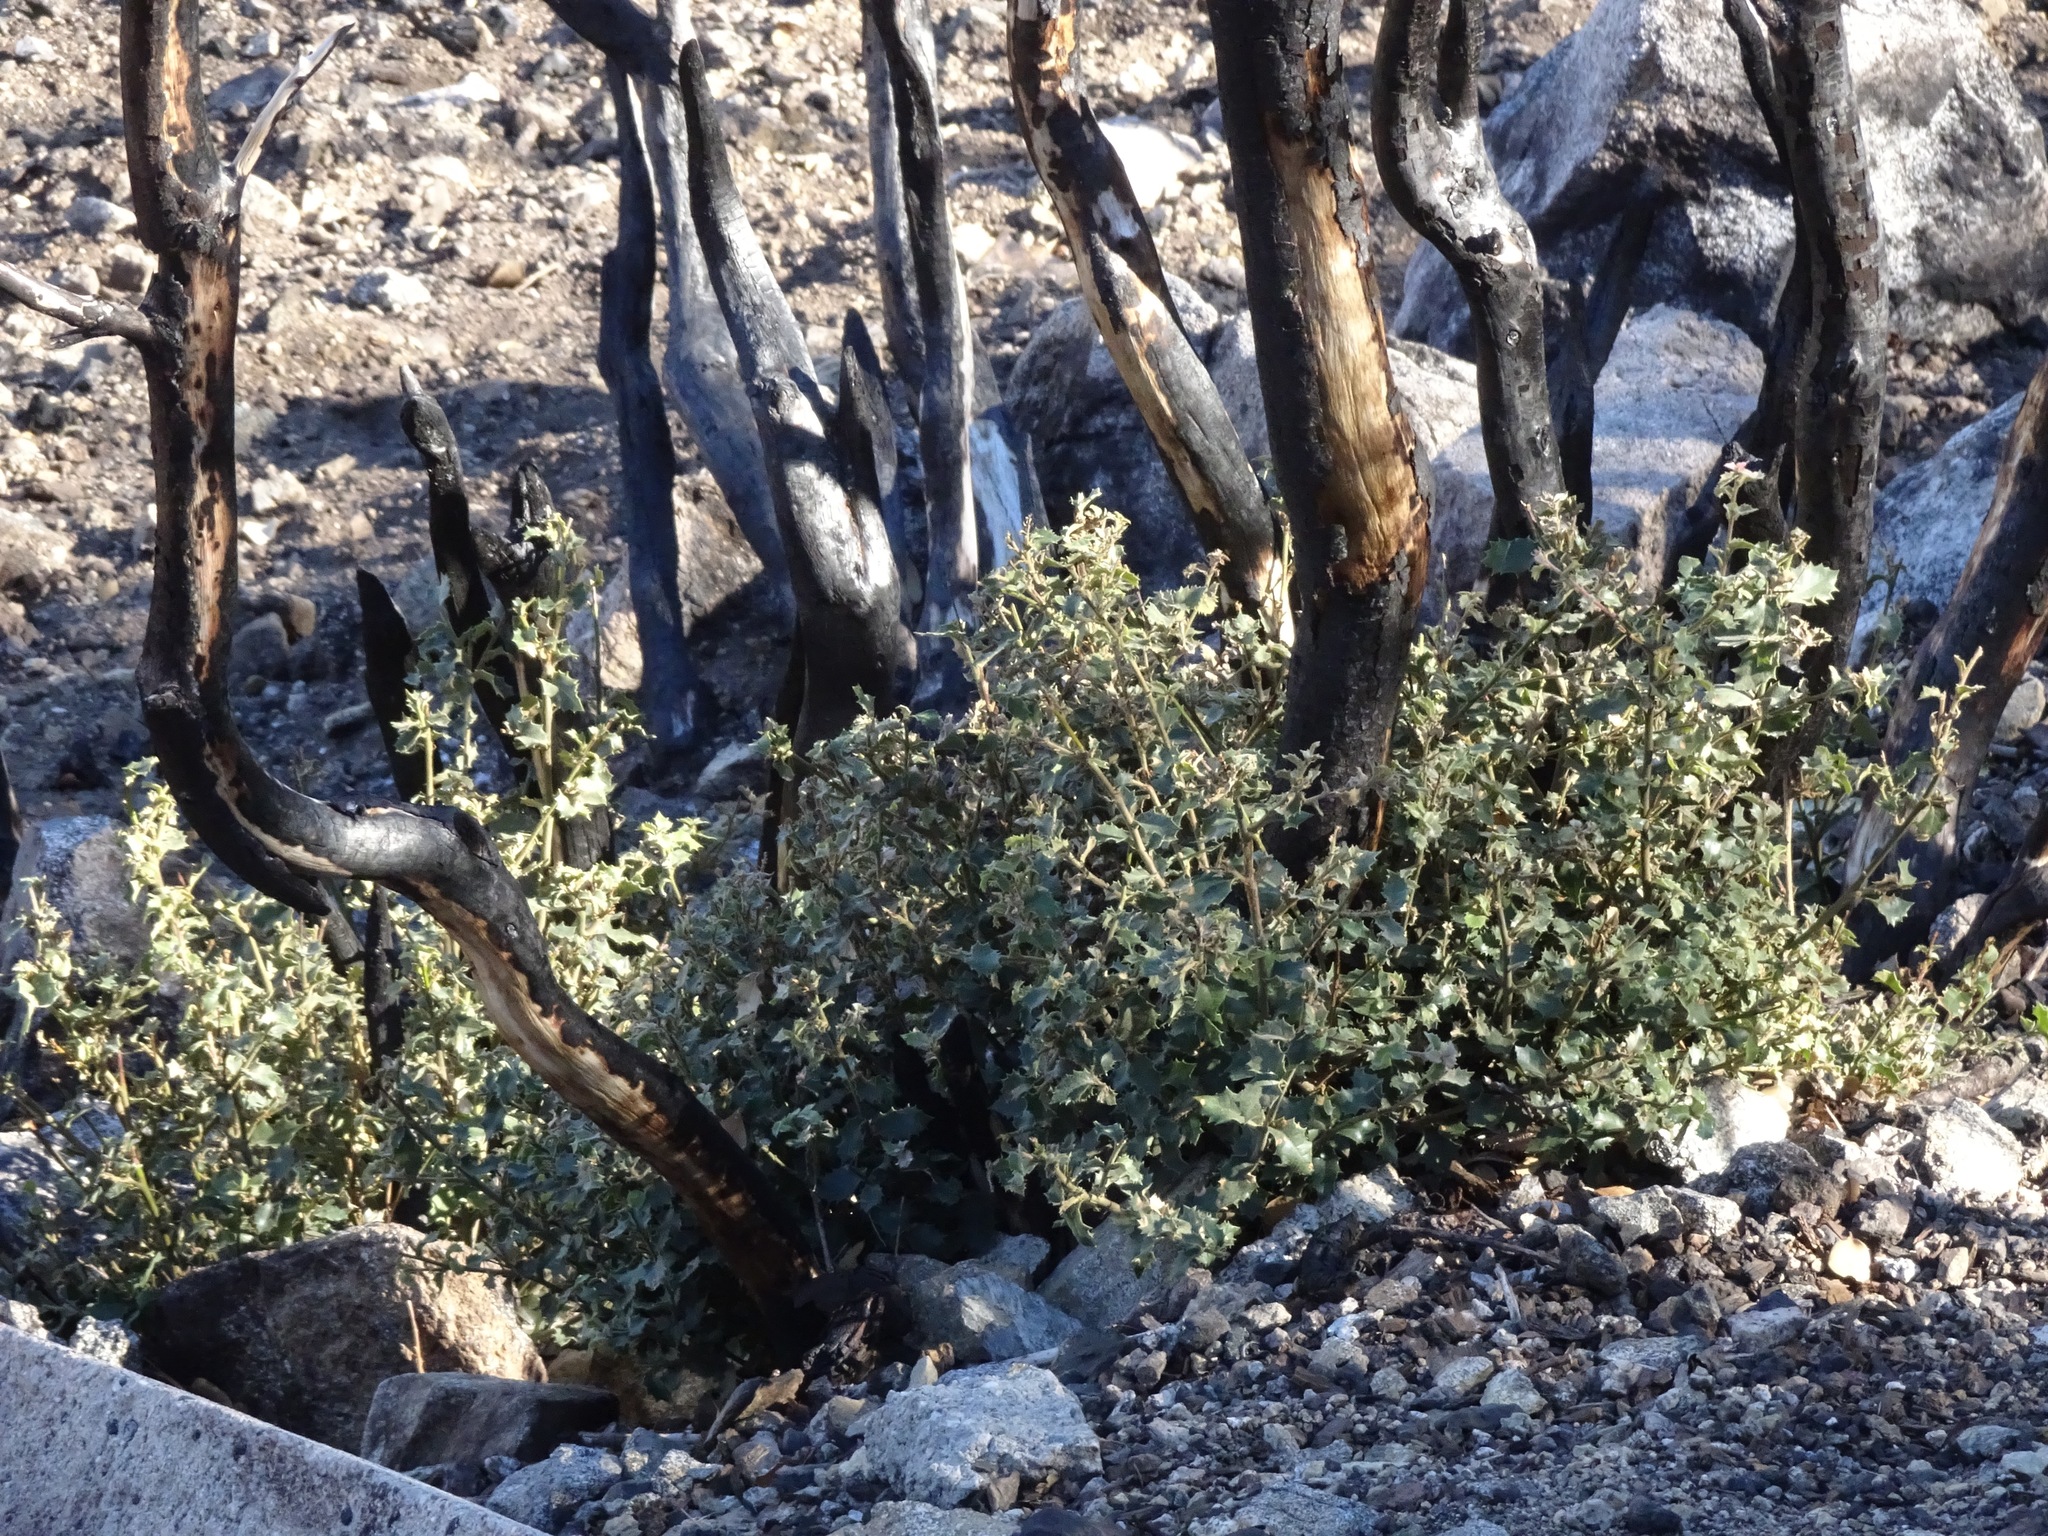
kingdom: Plantae
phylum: Tracheophyta
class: Magnoliopsida
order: Fagales
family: Fagaceae
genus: Quercus
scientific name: Quercus berberidifolia
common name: California scrub oak
